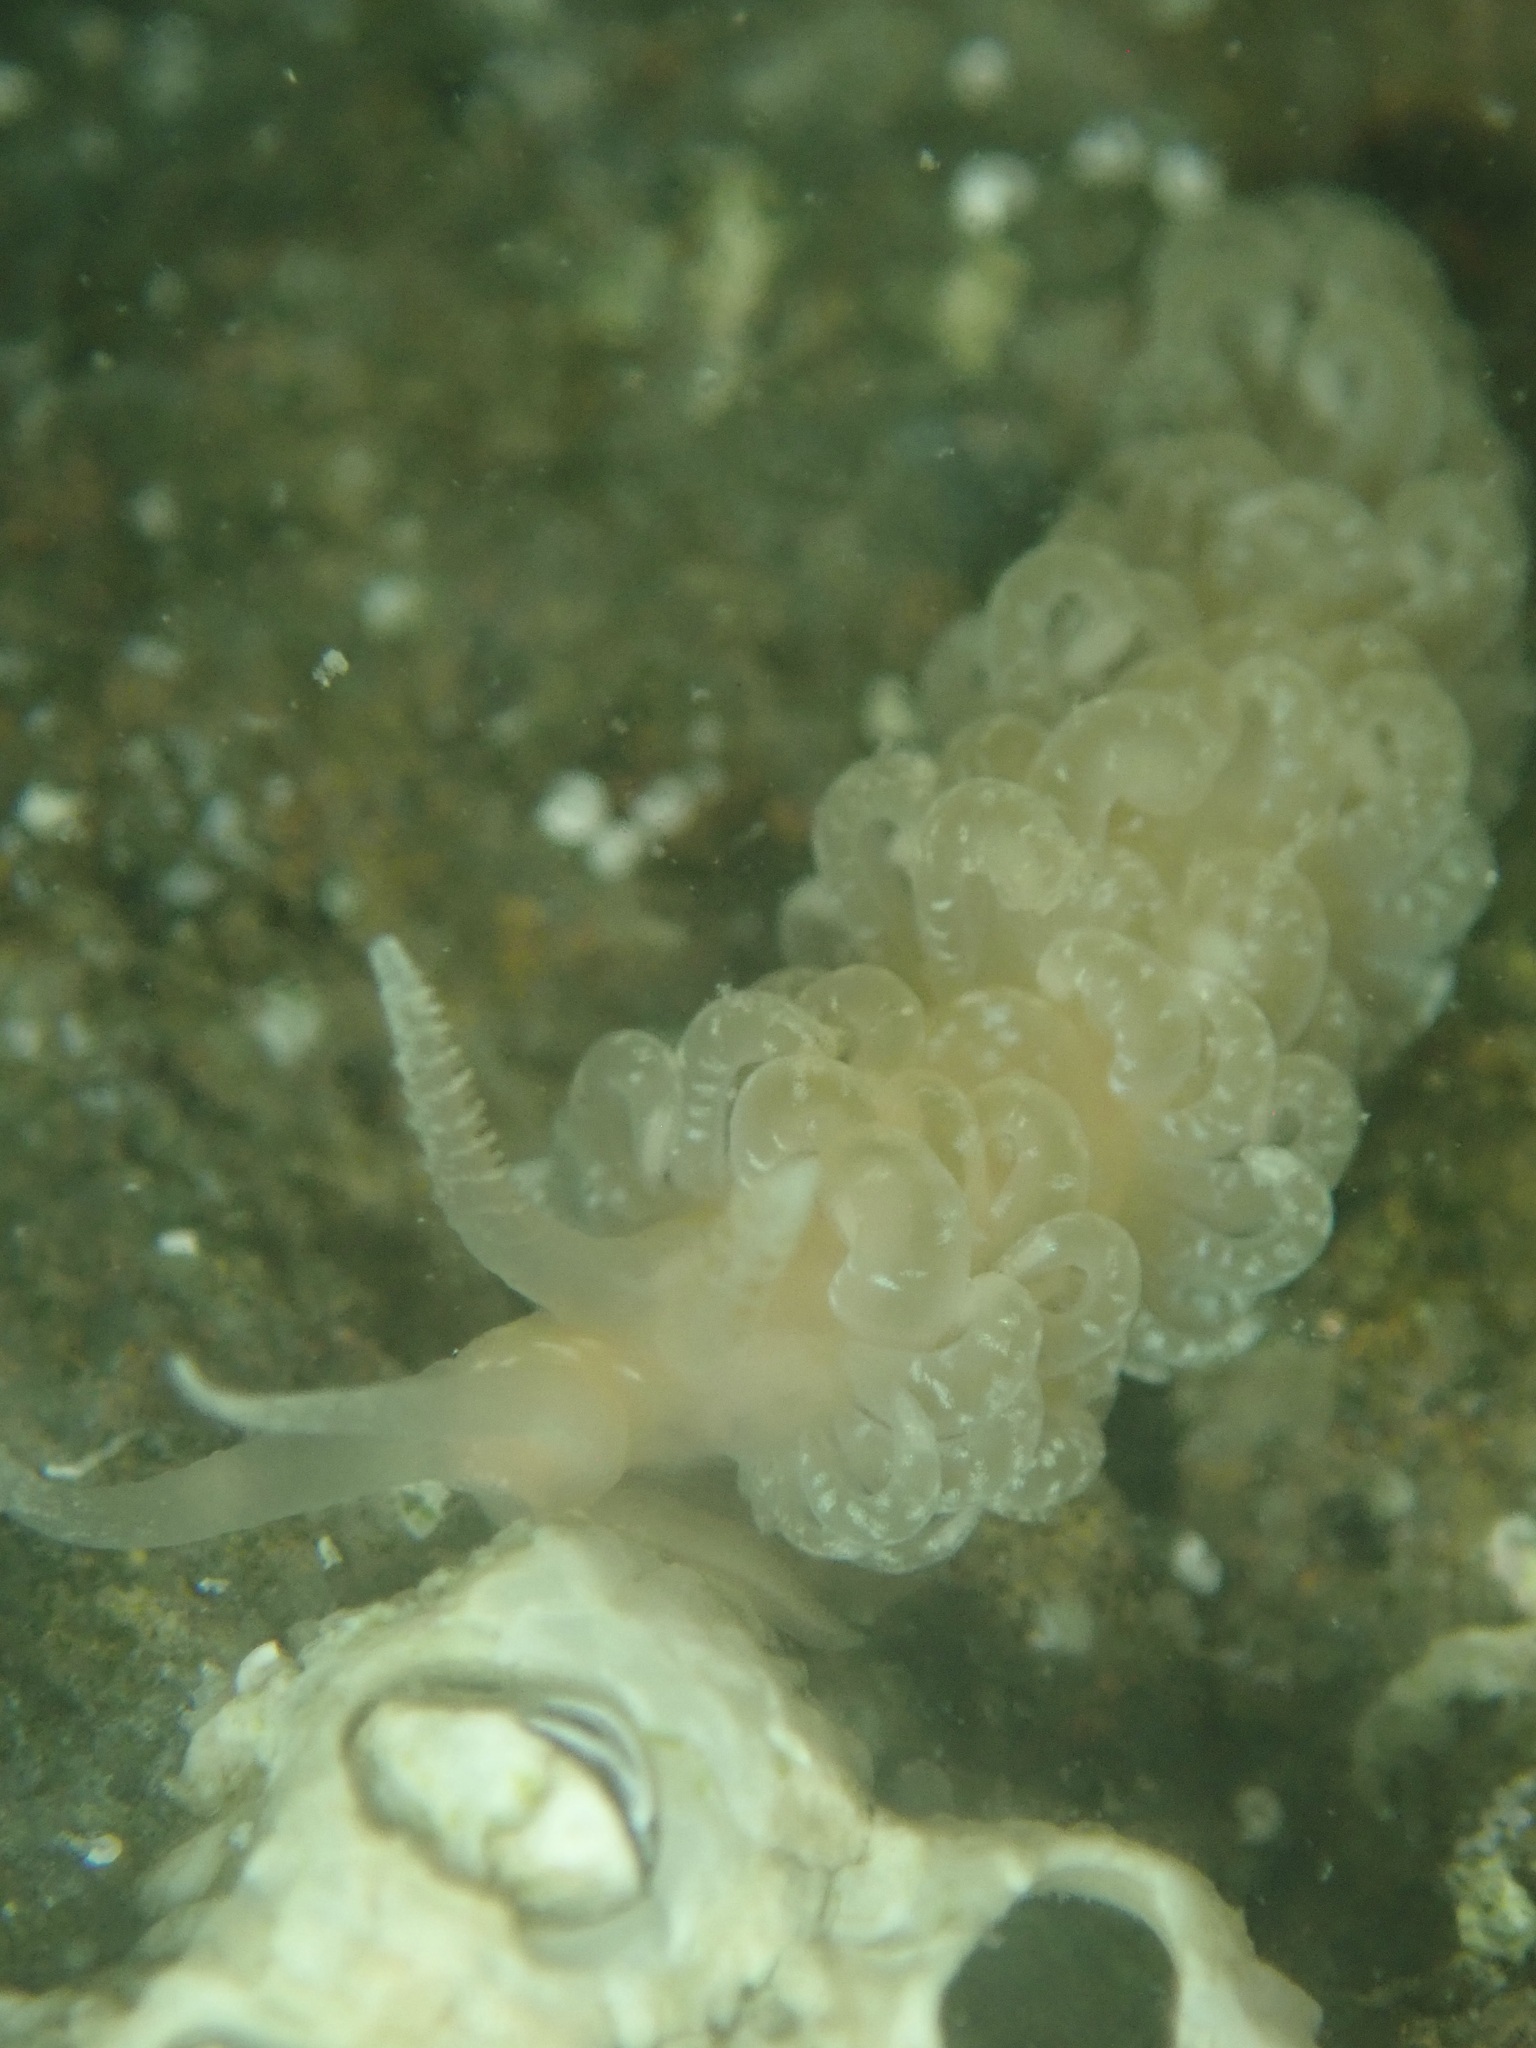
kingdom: Animalia
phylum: Mollusca
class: Gastropoda
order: Nudibranchia
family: Aeolidiidae
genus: Spurilla
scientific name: Spurilla braziliana
